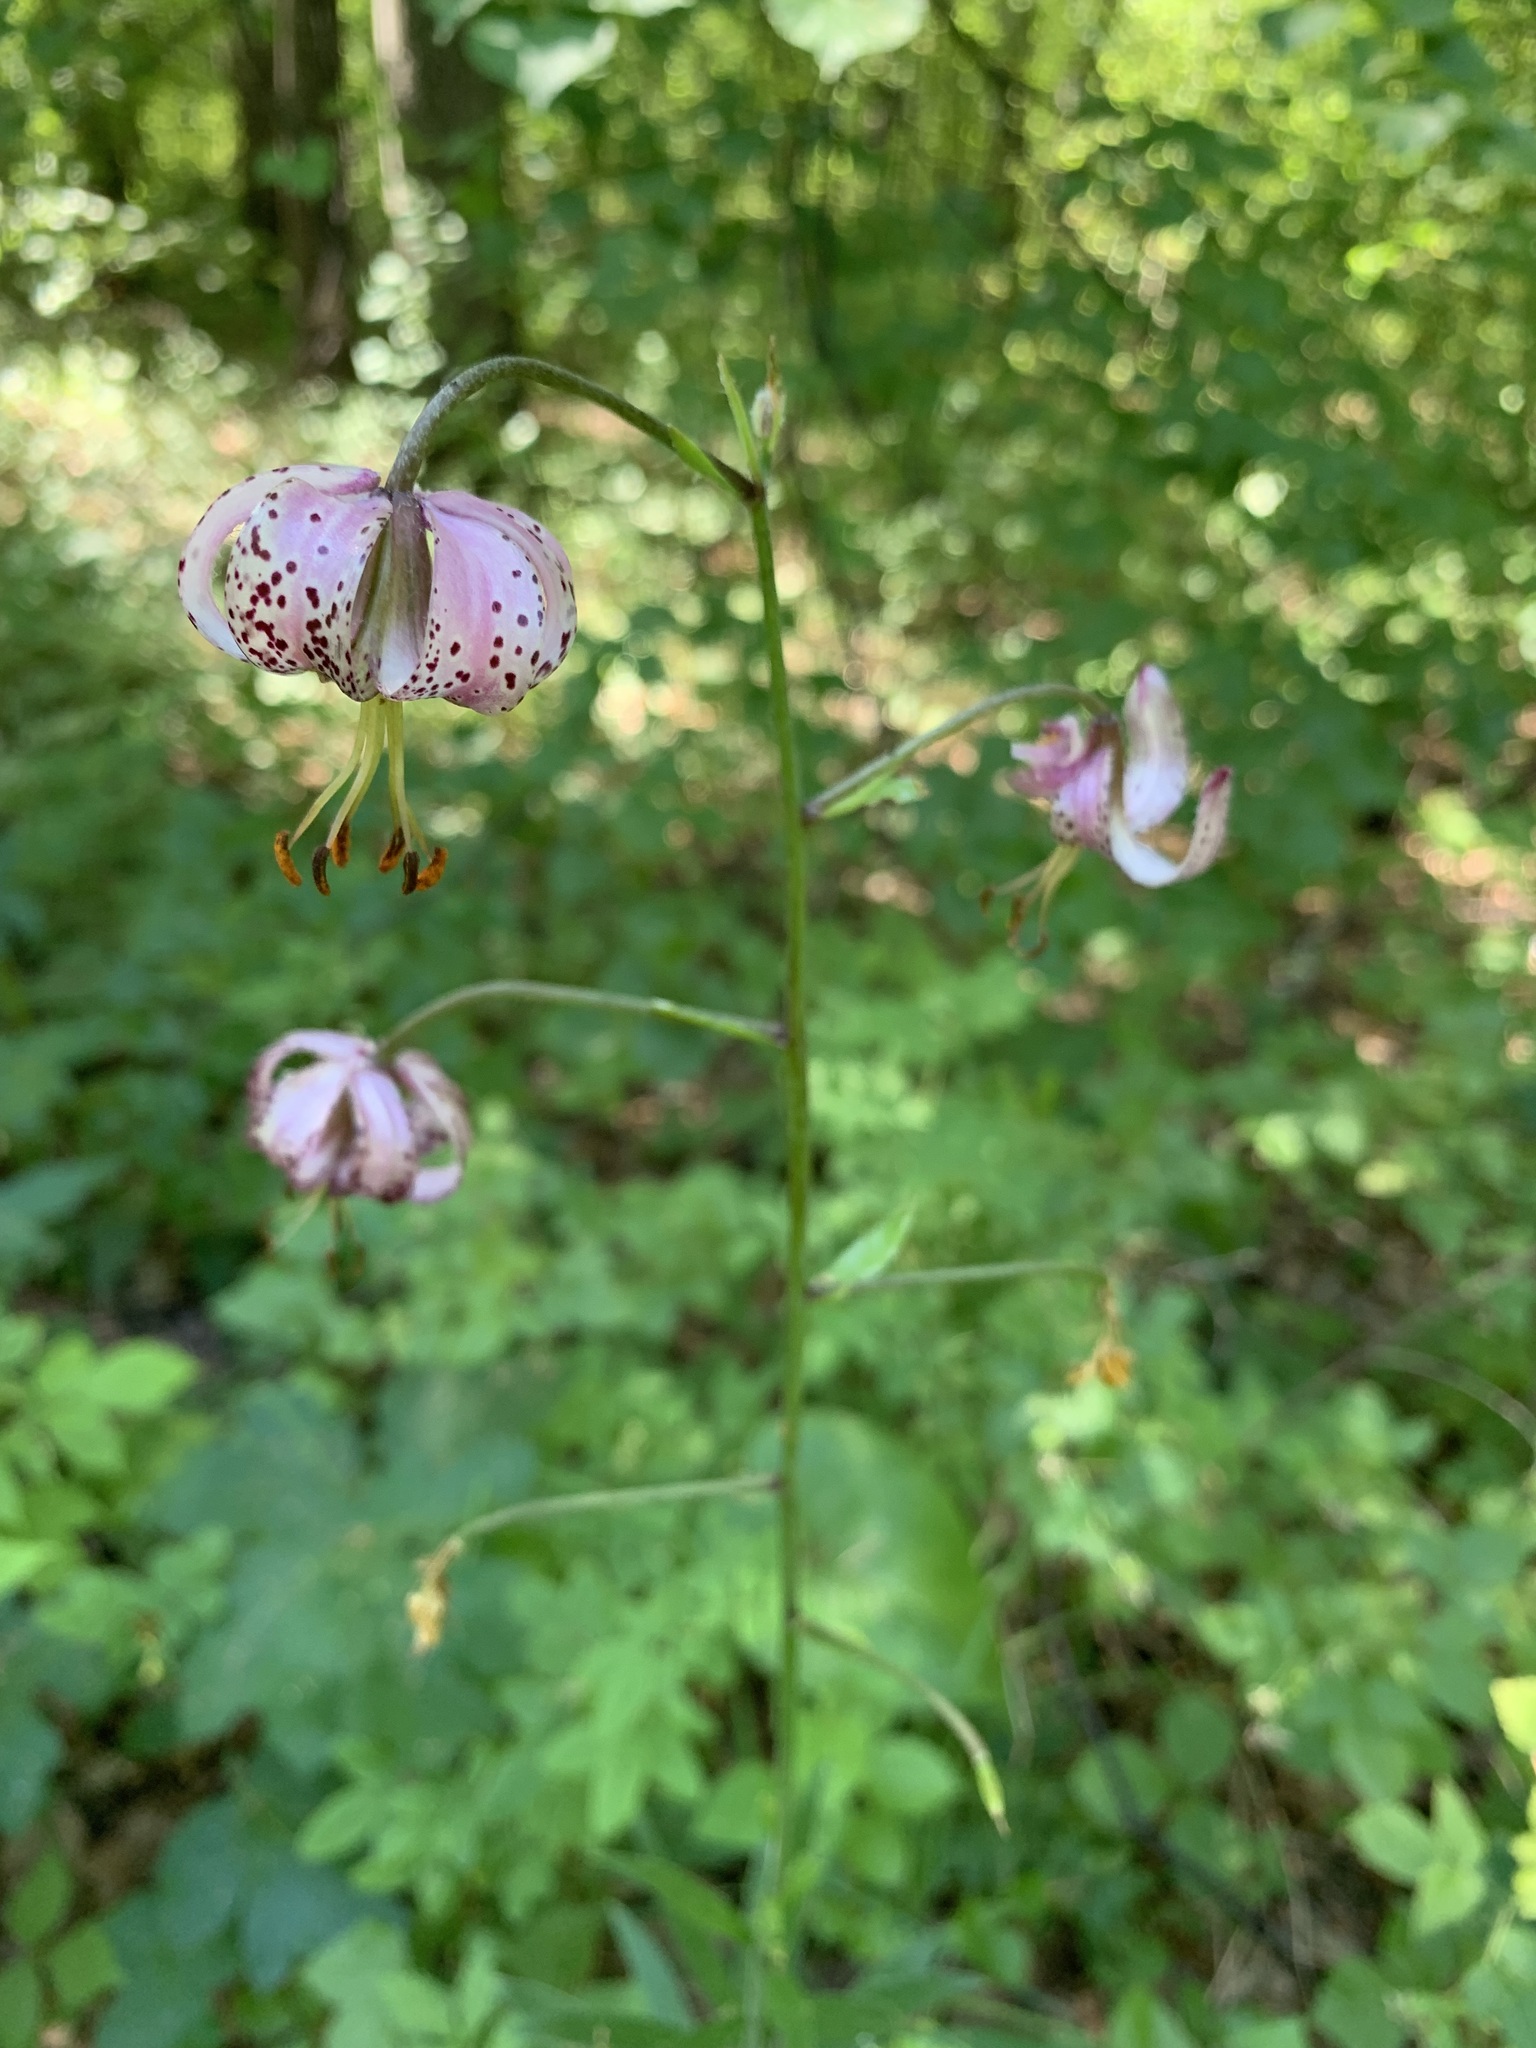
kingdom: Plantae
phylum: Tracheophyta
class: Liliopsida
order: Liliales
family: Liliaceae
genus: Lilium
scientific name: Lilium martagon
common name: Martagon lily
